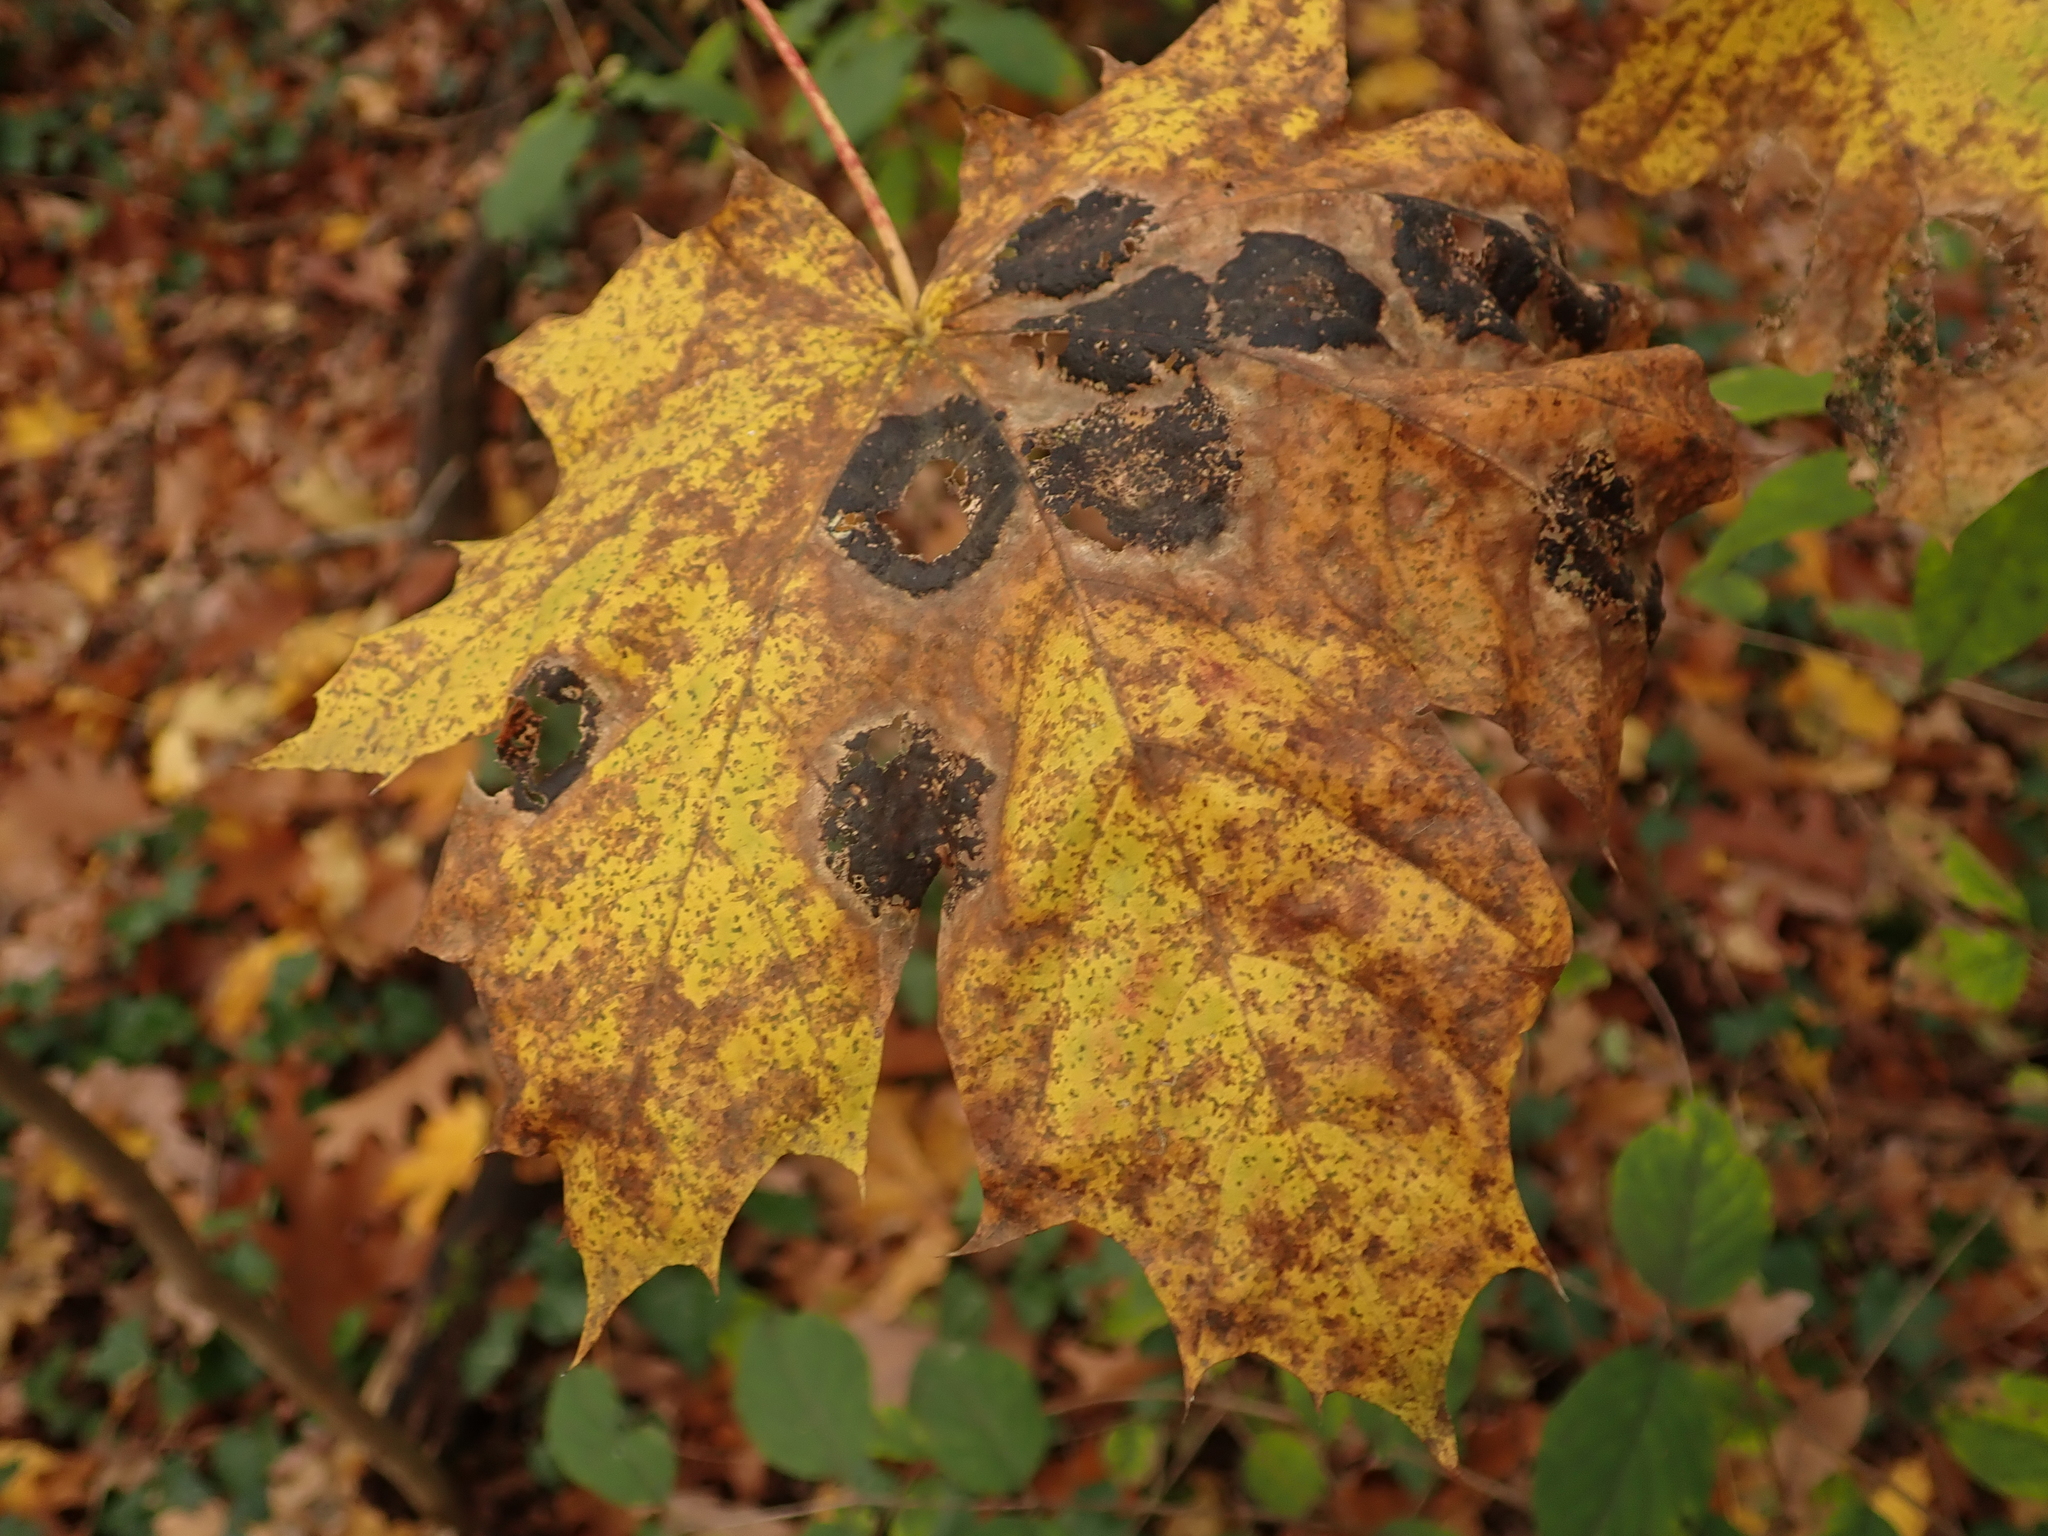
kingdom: Plantae
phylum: Tracheophyta
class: Magnoliopsida
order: Sapindales
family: Sapindaceae
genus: Acer
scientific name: Acer platanoides
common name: Norway maple
